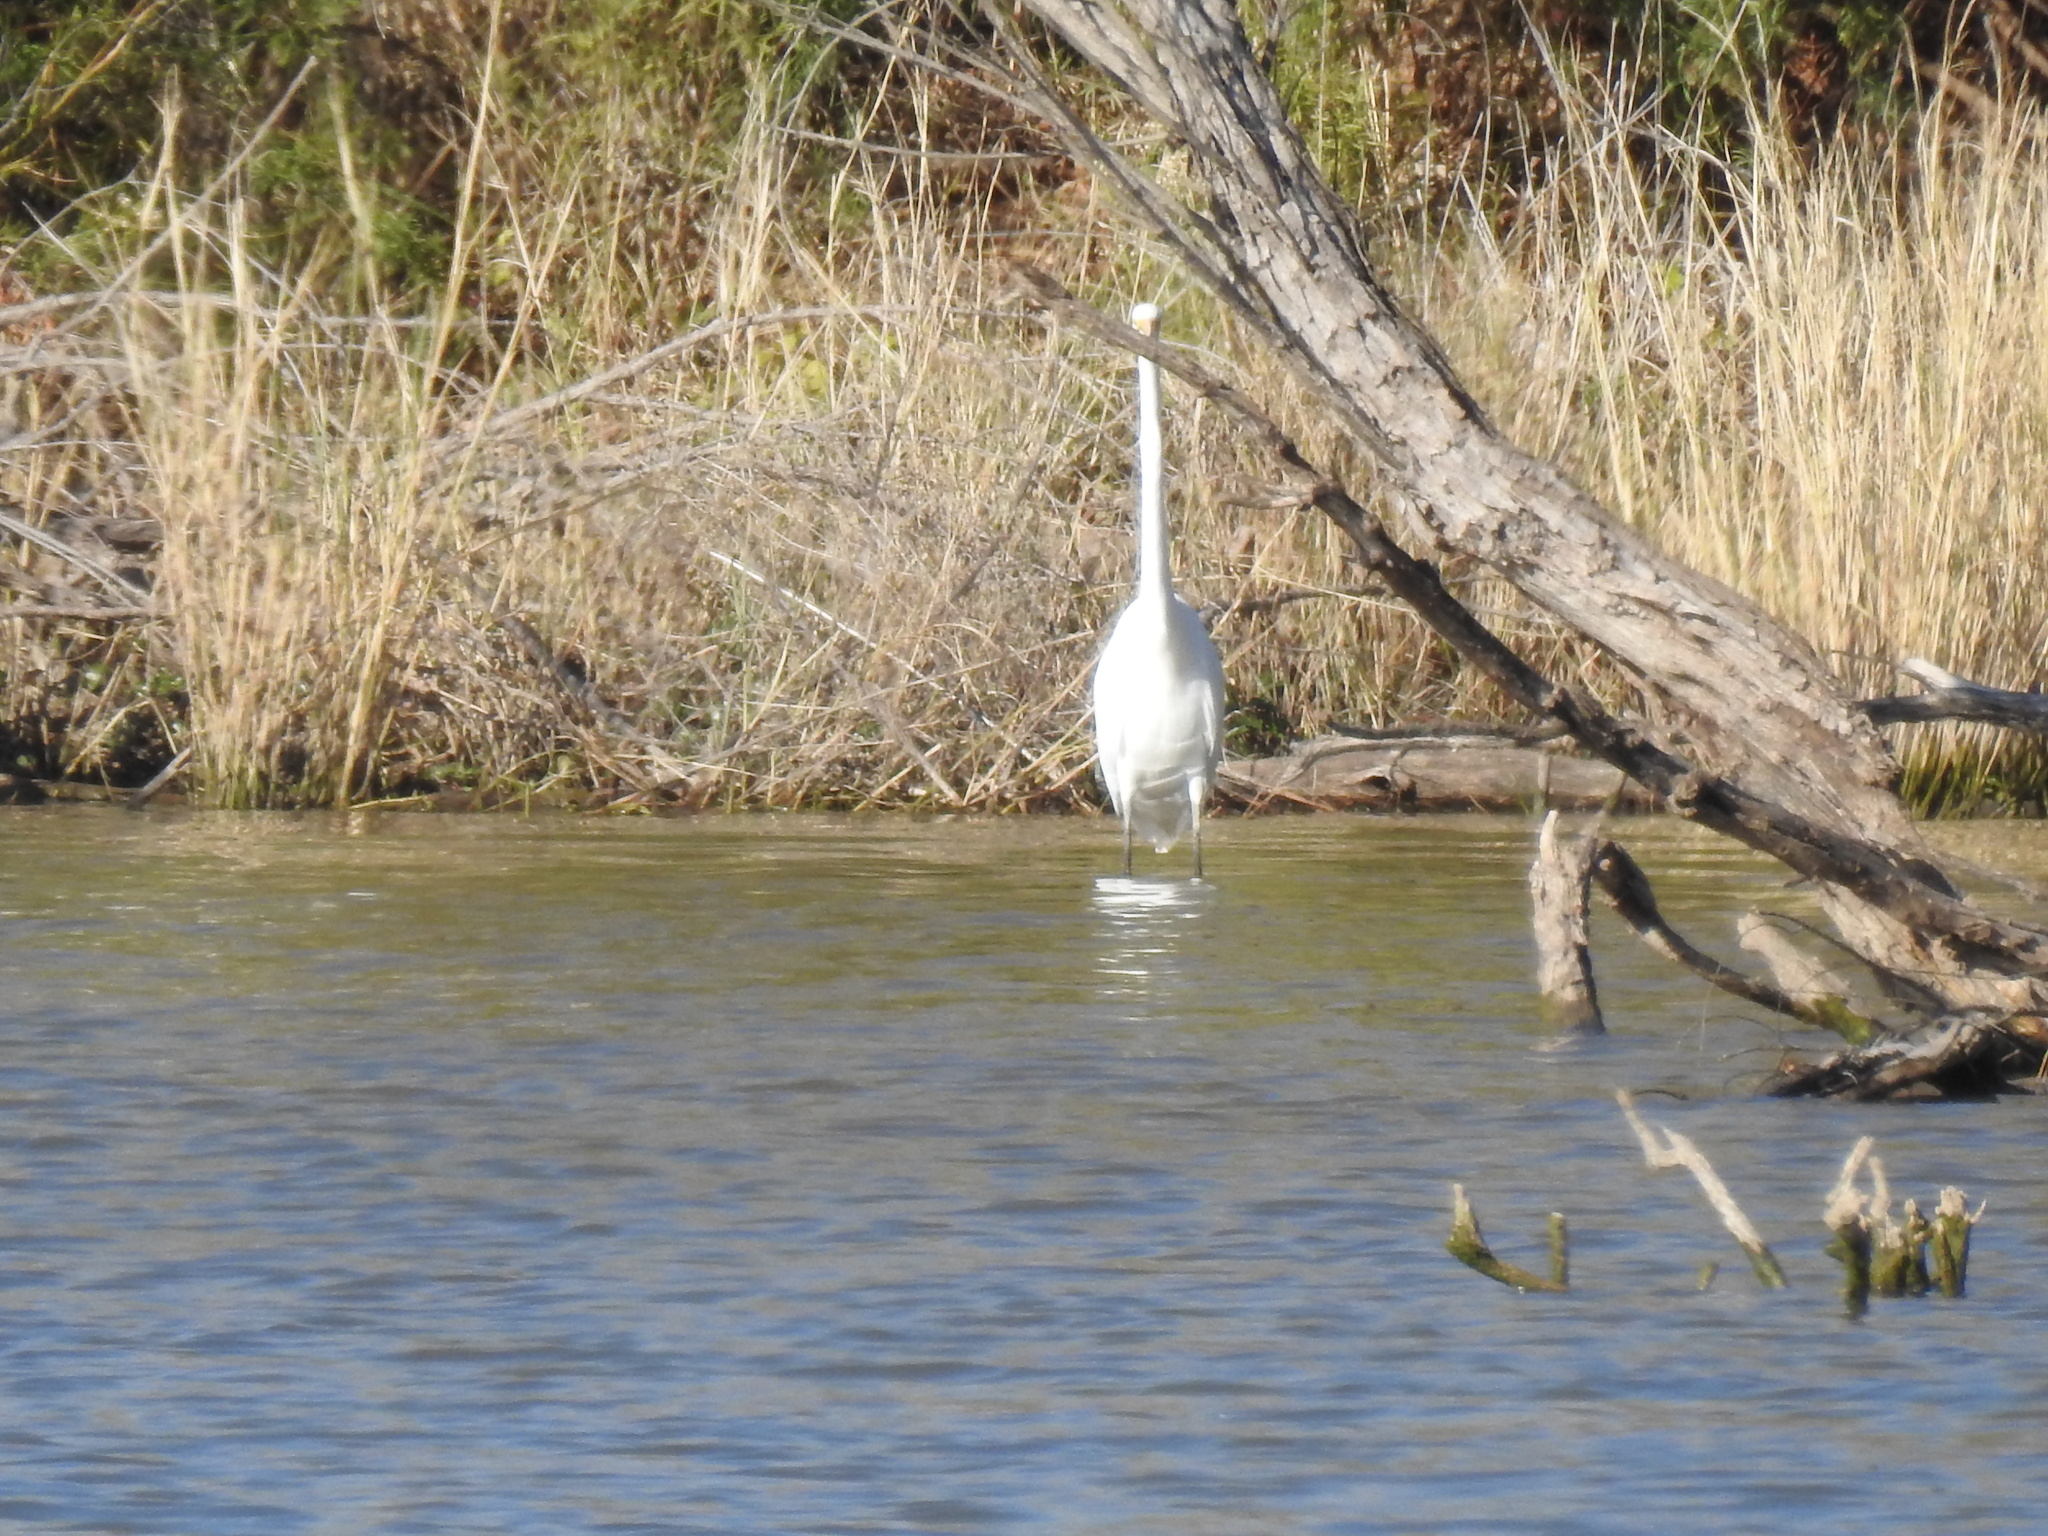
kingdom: Animalia
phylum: Chordata
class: Aves
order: Pelecaniformes
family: Ardeidae
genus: Ardea
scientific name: Ardea alba
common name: Great egret
